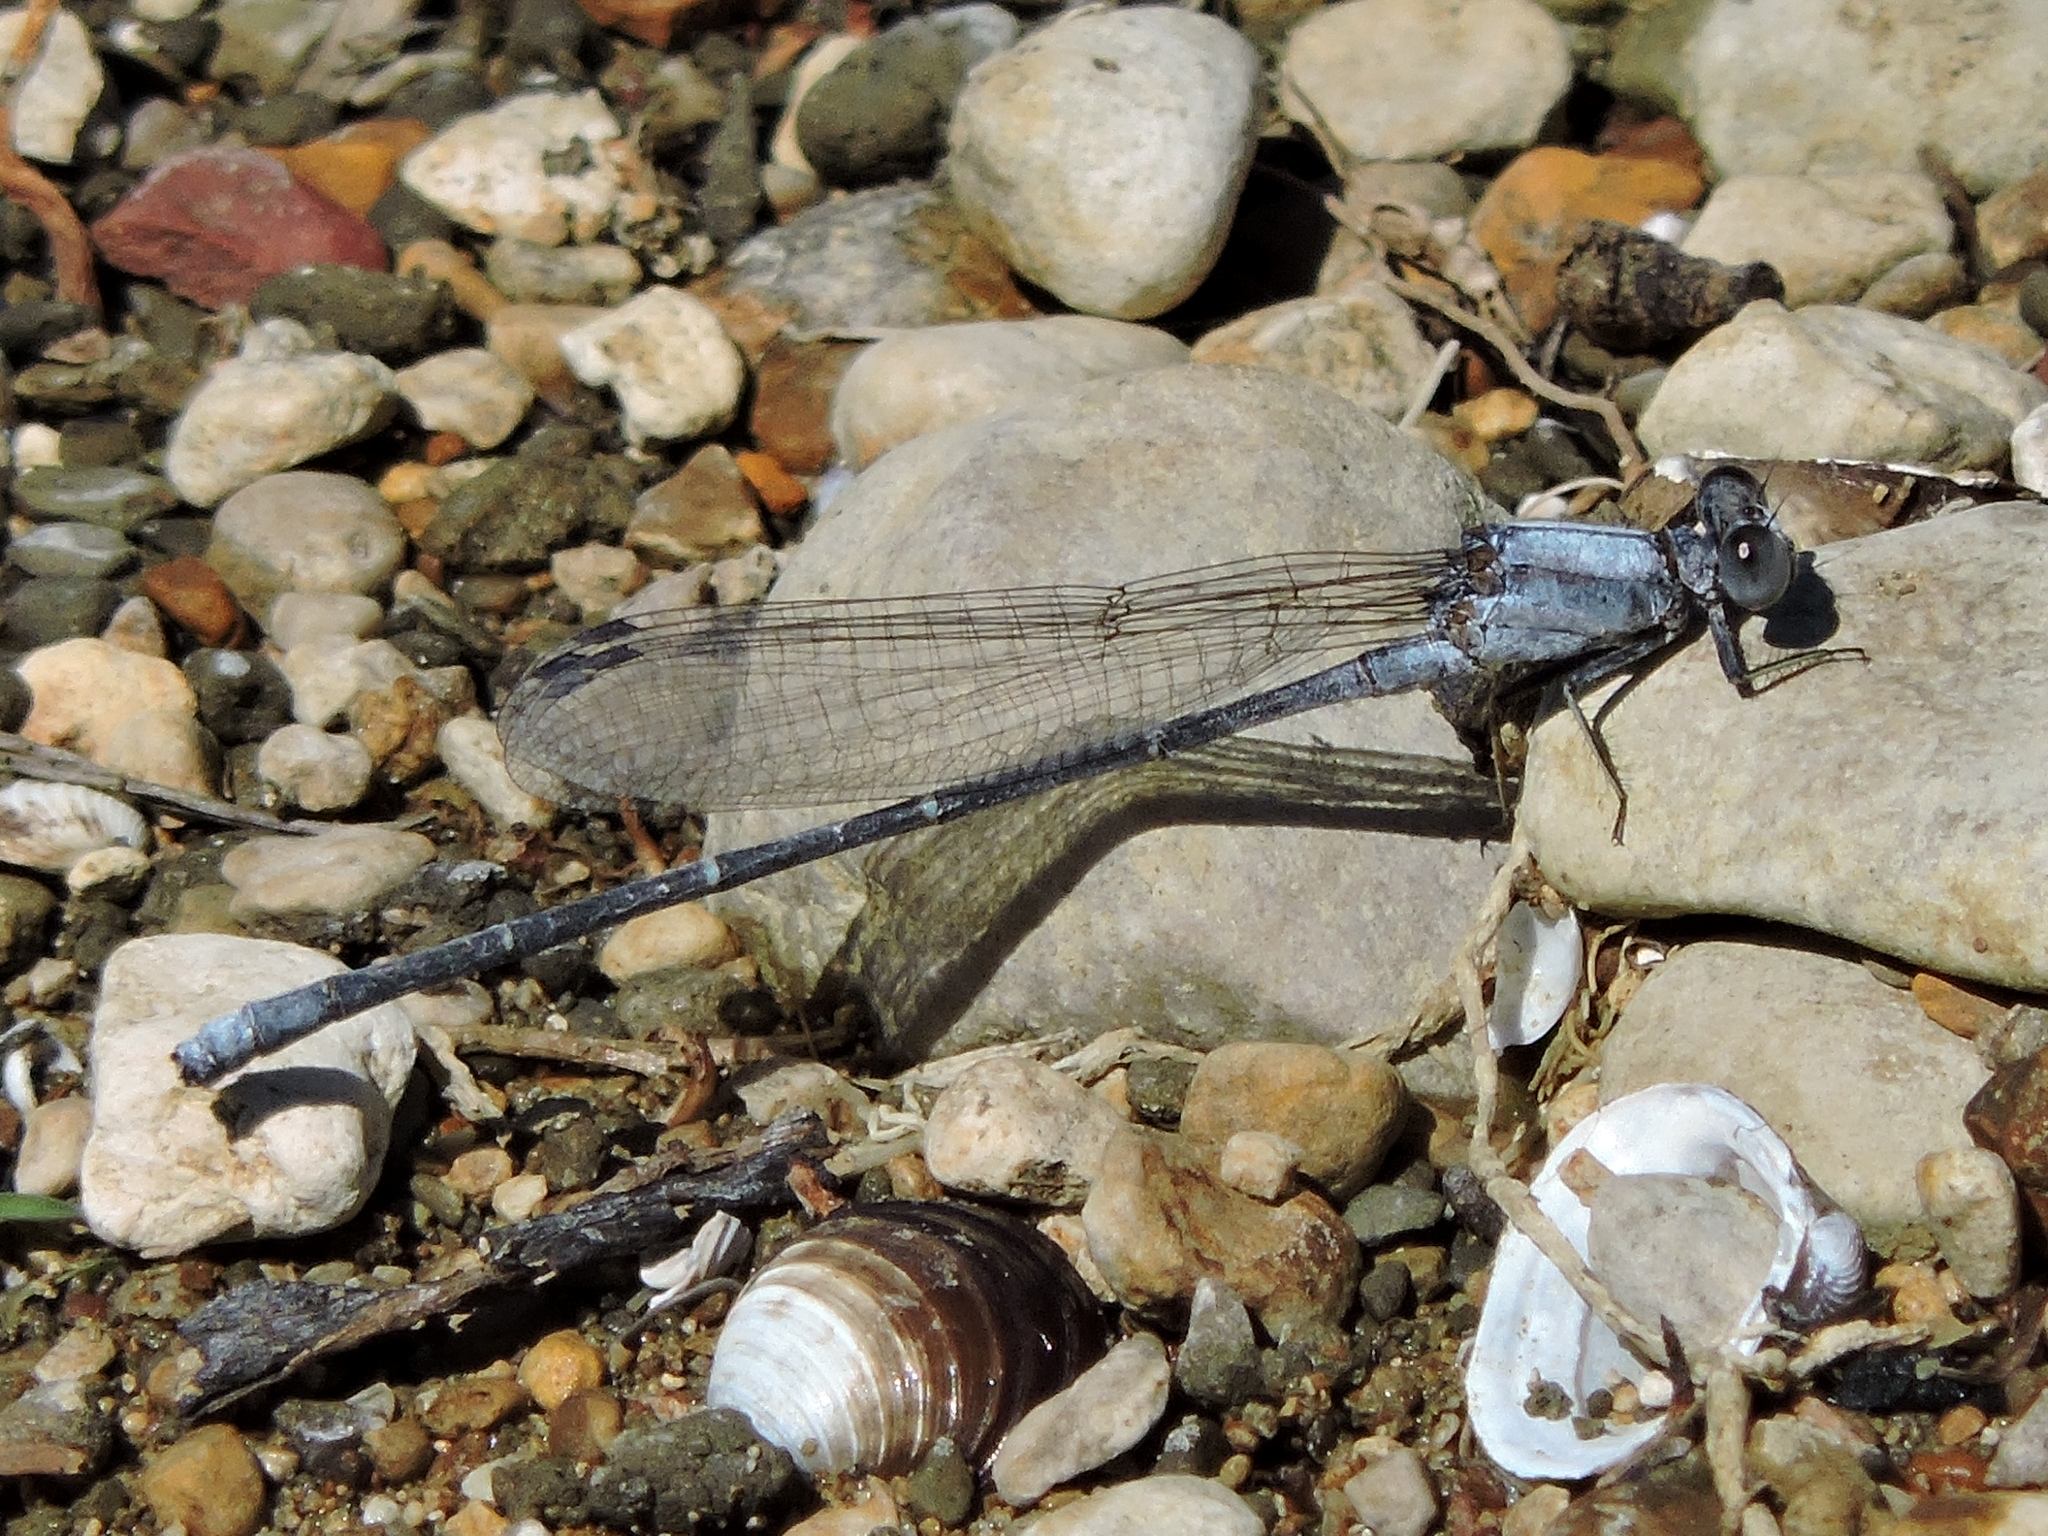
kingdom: Animalia
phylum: Arthropoda
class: Insecta
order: Odonata
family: Coenagrionidae
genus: Argia
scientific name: Argia moesta
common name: Powdered dancer
